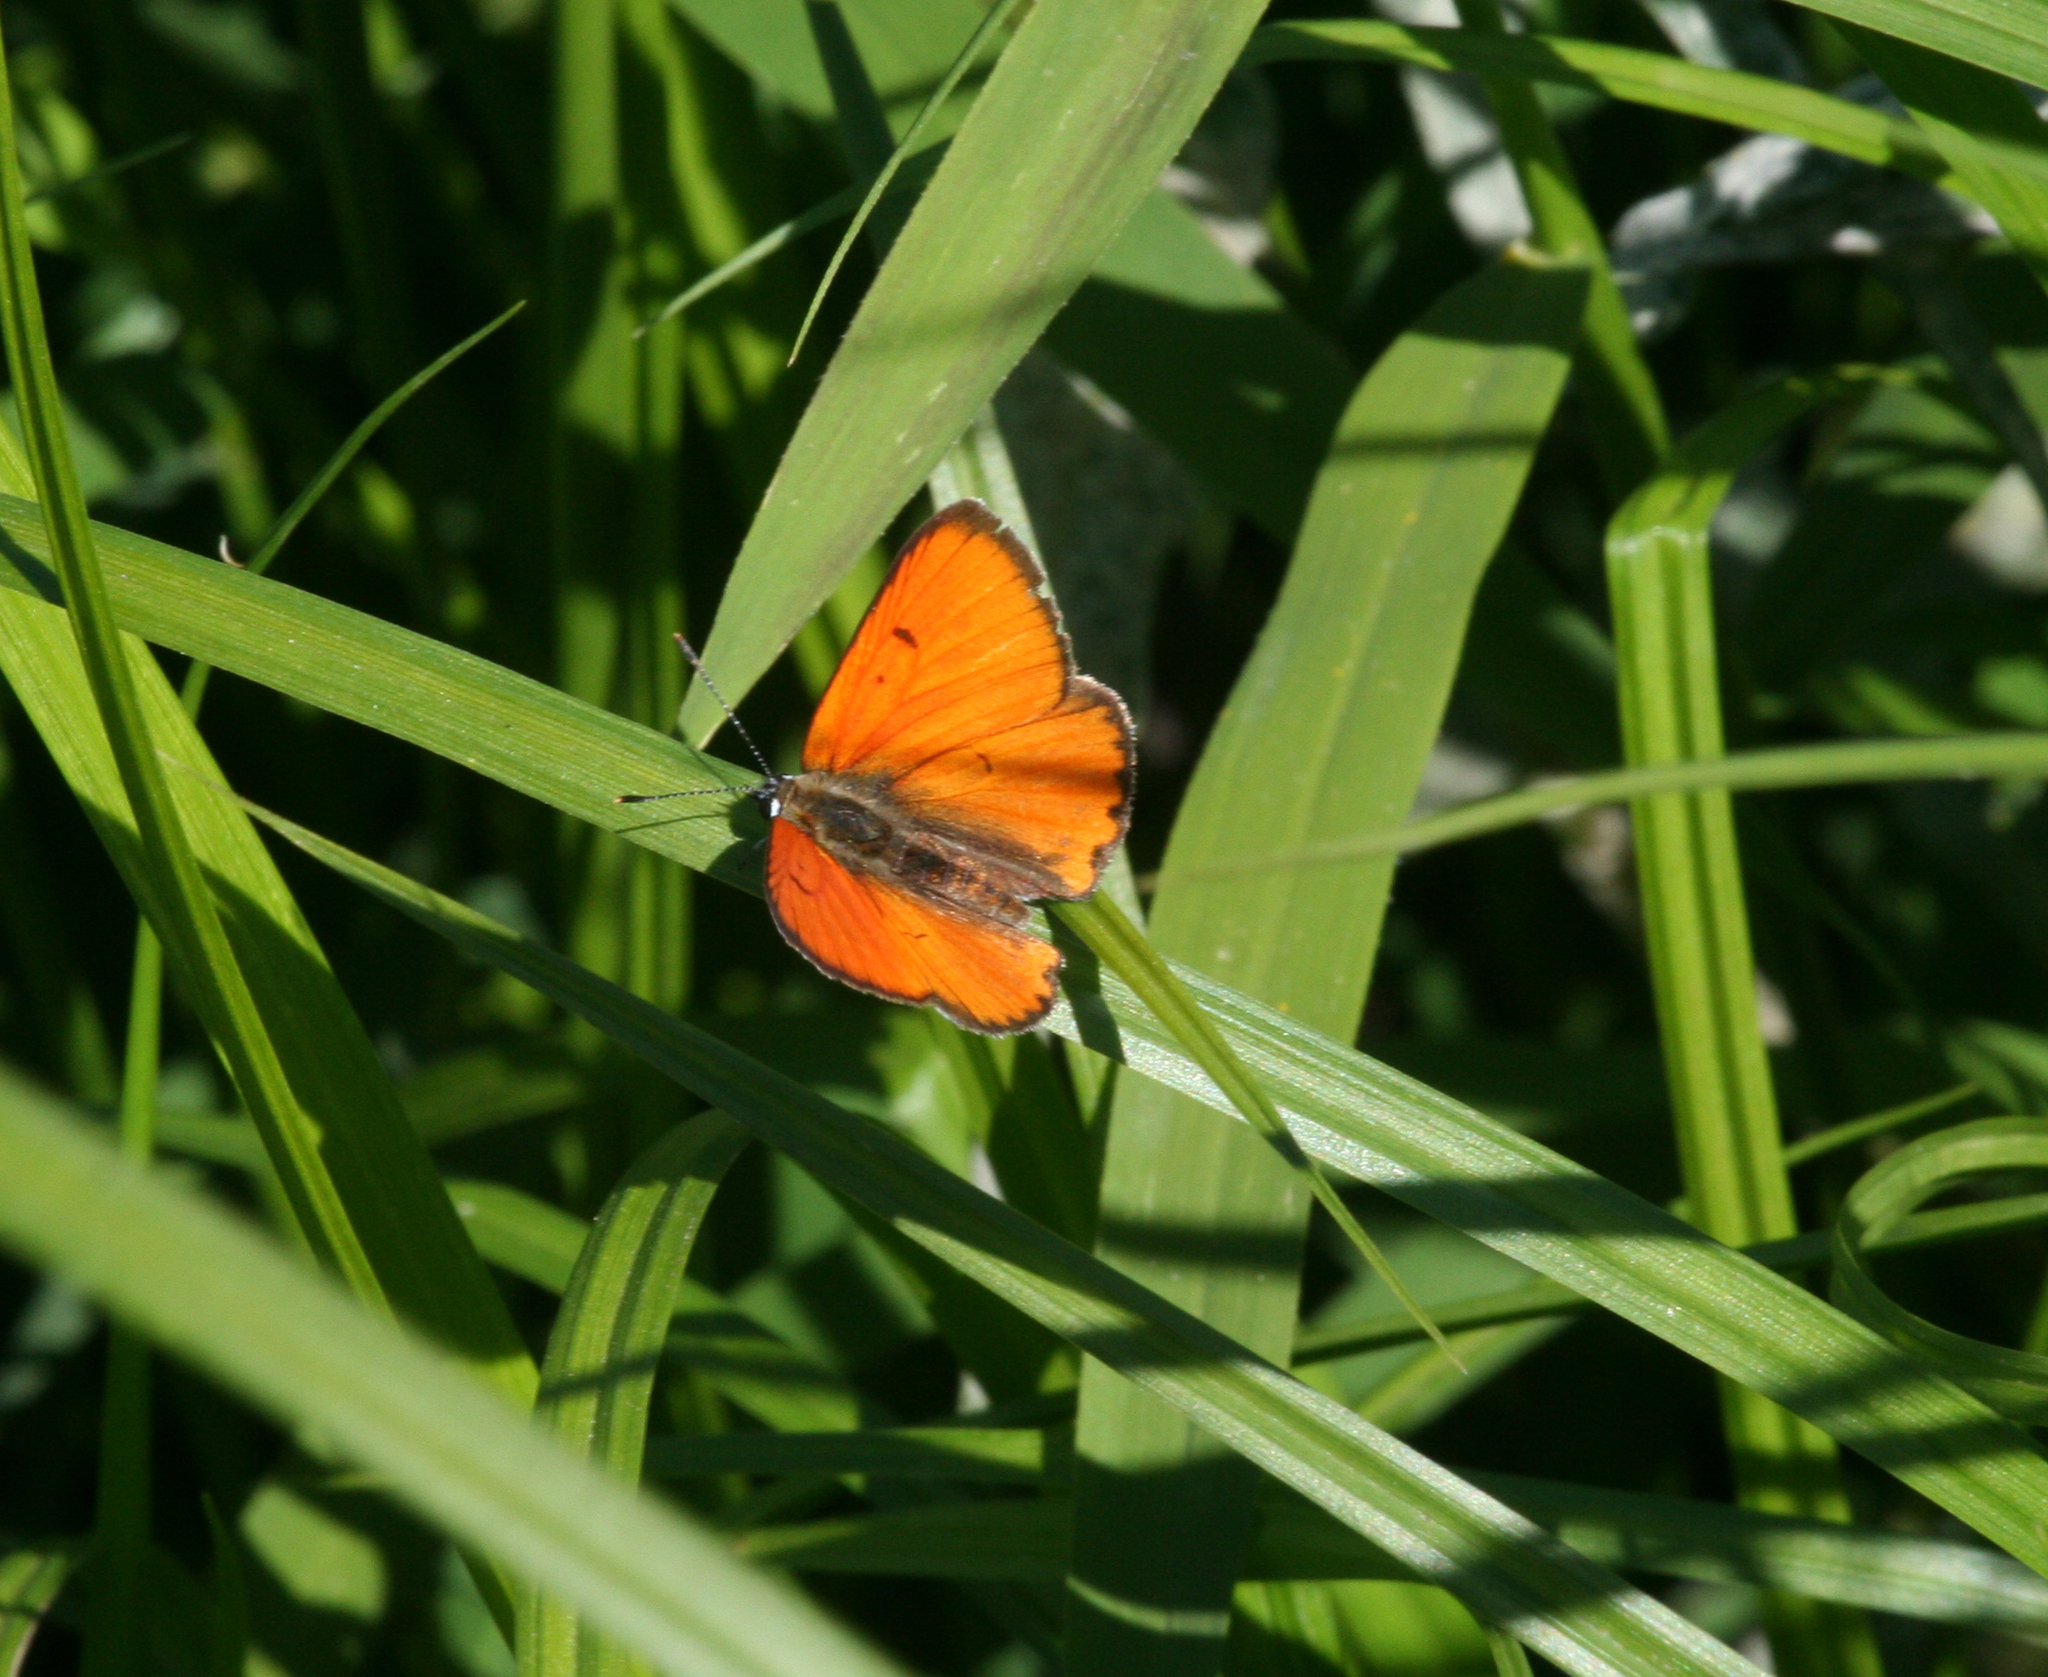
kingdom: Animalia
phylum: Arthropoda
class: Insecta
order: Lepidoptera
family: Lycaenidae
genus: Lycaena
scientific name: Lycaena dispar
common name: Large copper
